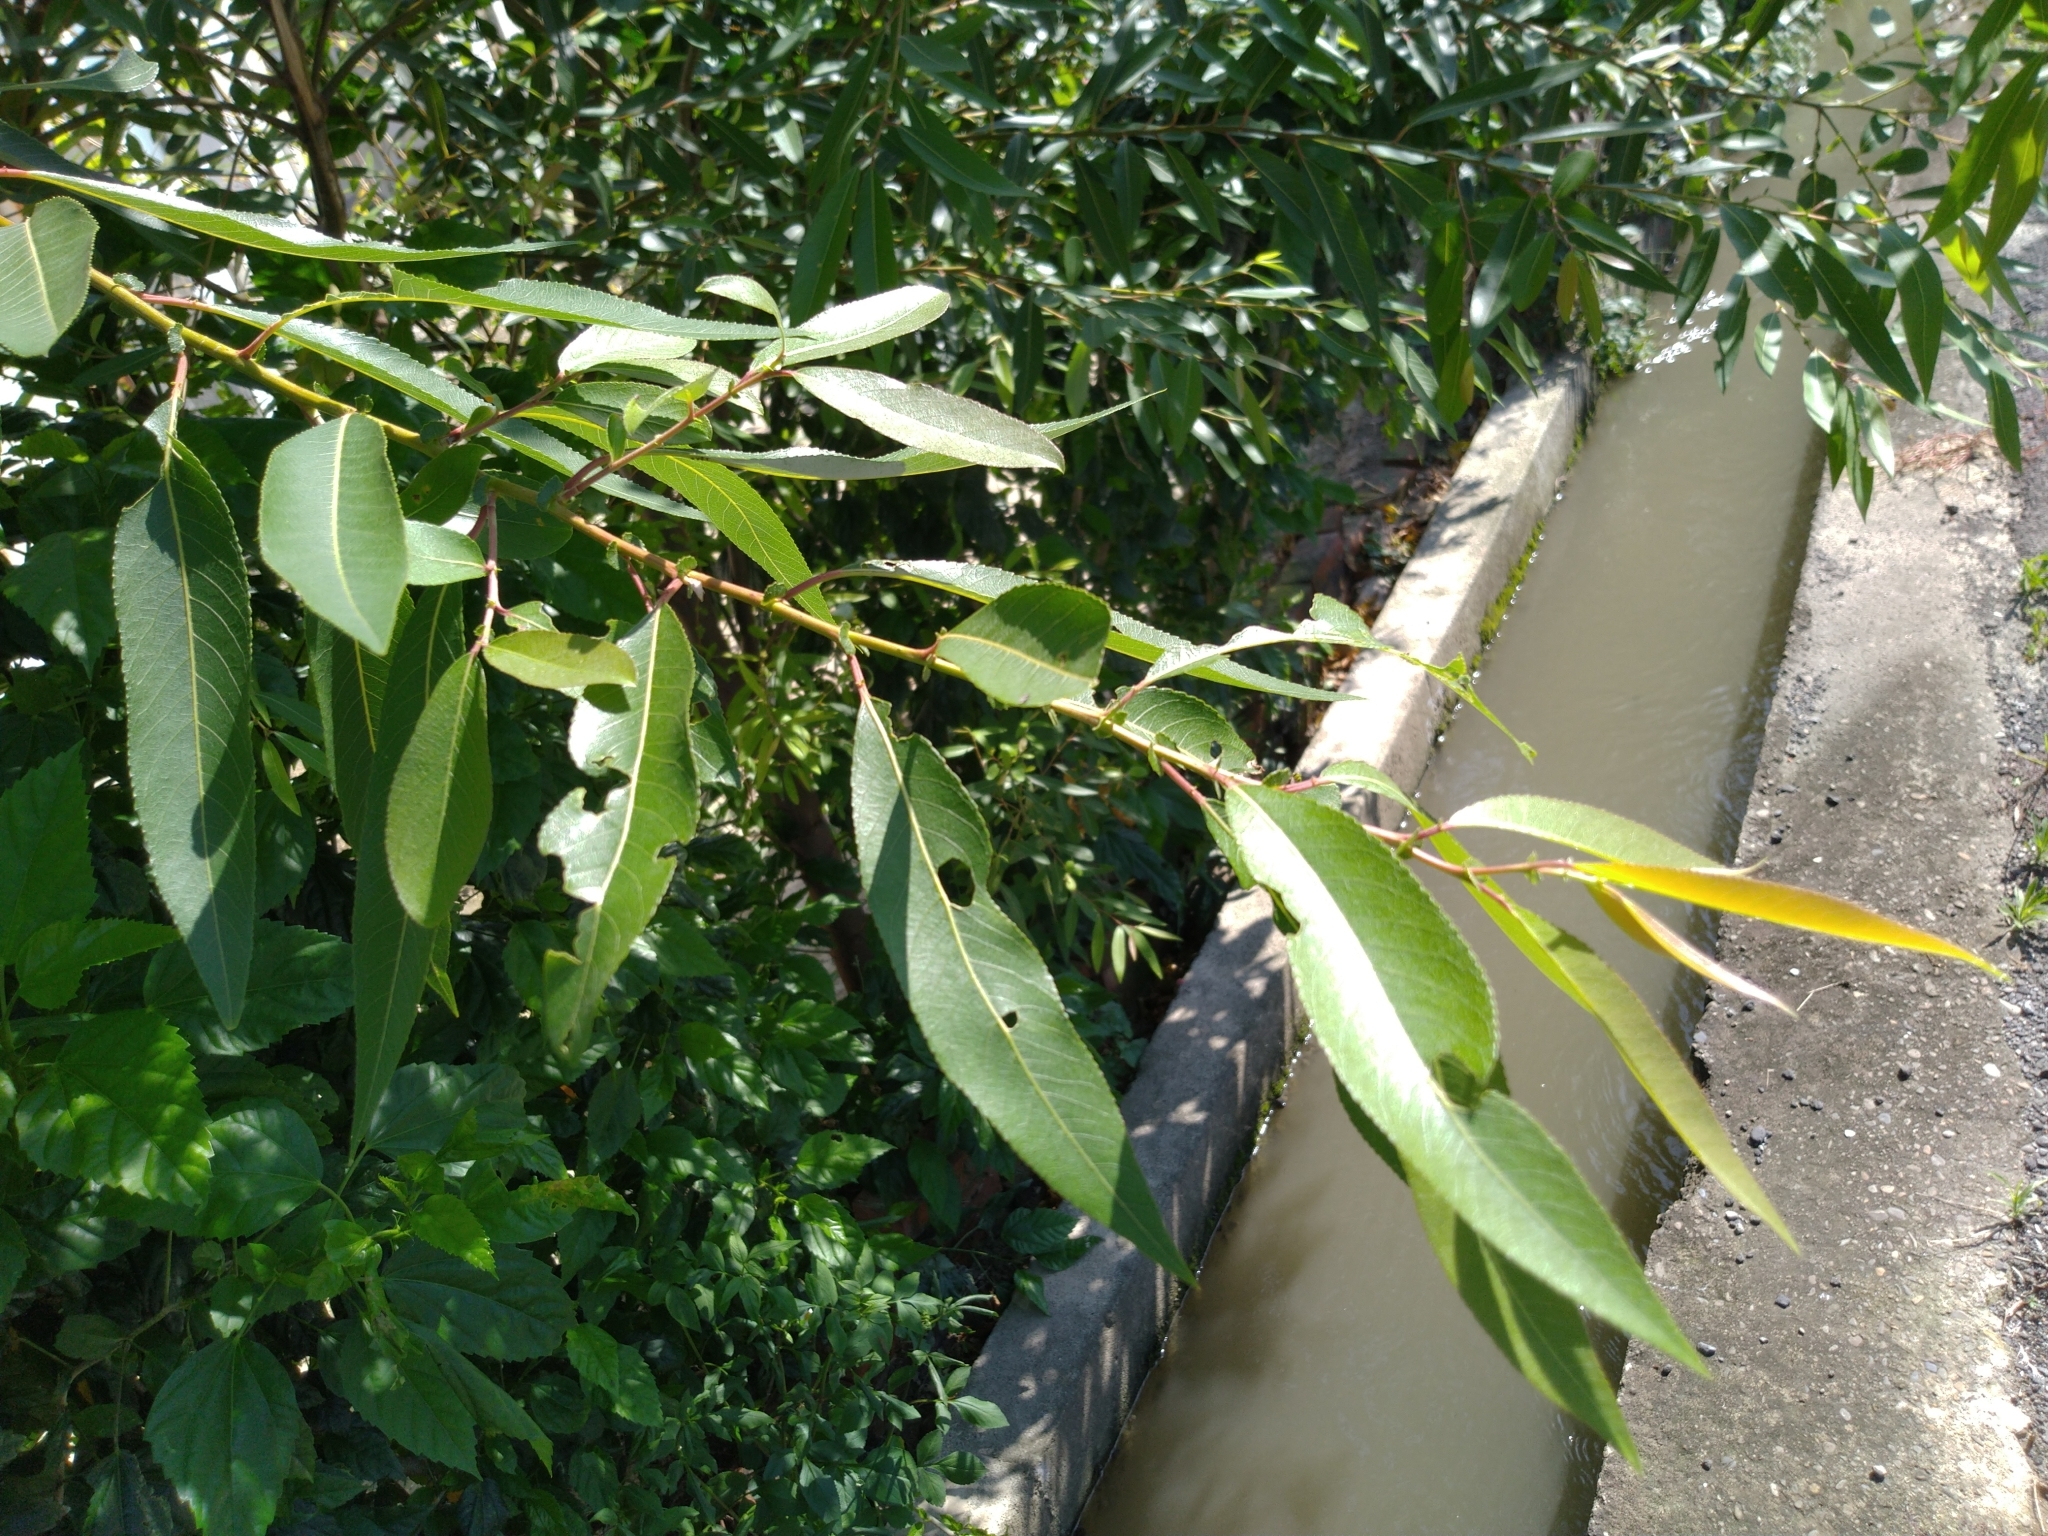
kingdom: Plantae
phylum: Tracheophyta
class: Magnoliopsida
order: Malpighiales
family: Salicaceae
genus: Salix
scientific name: Salix mesnyi
